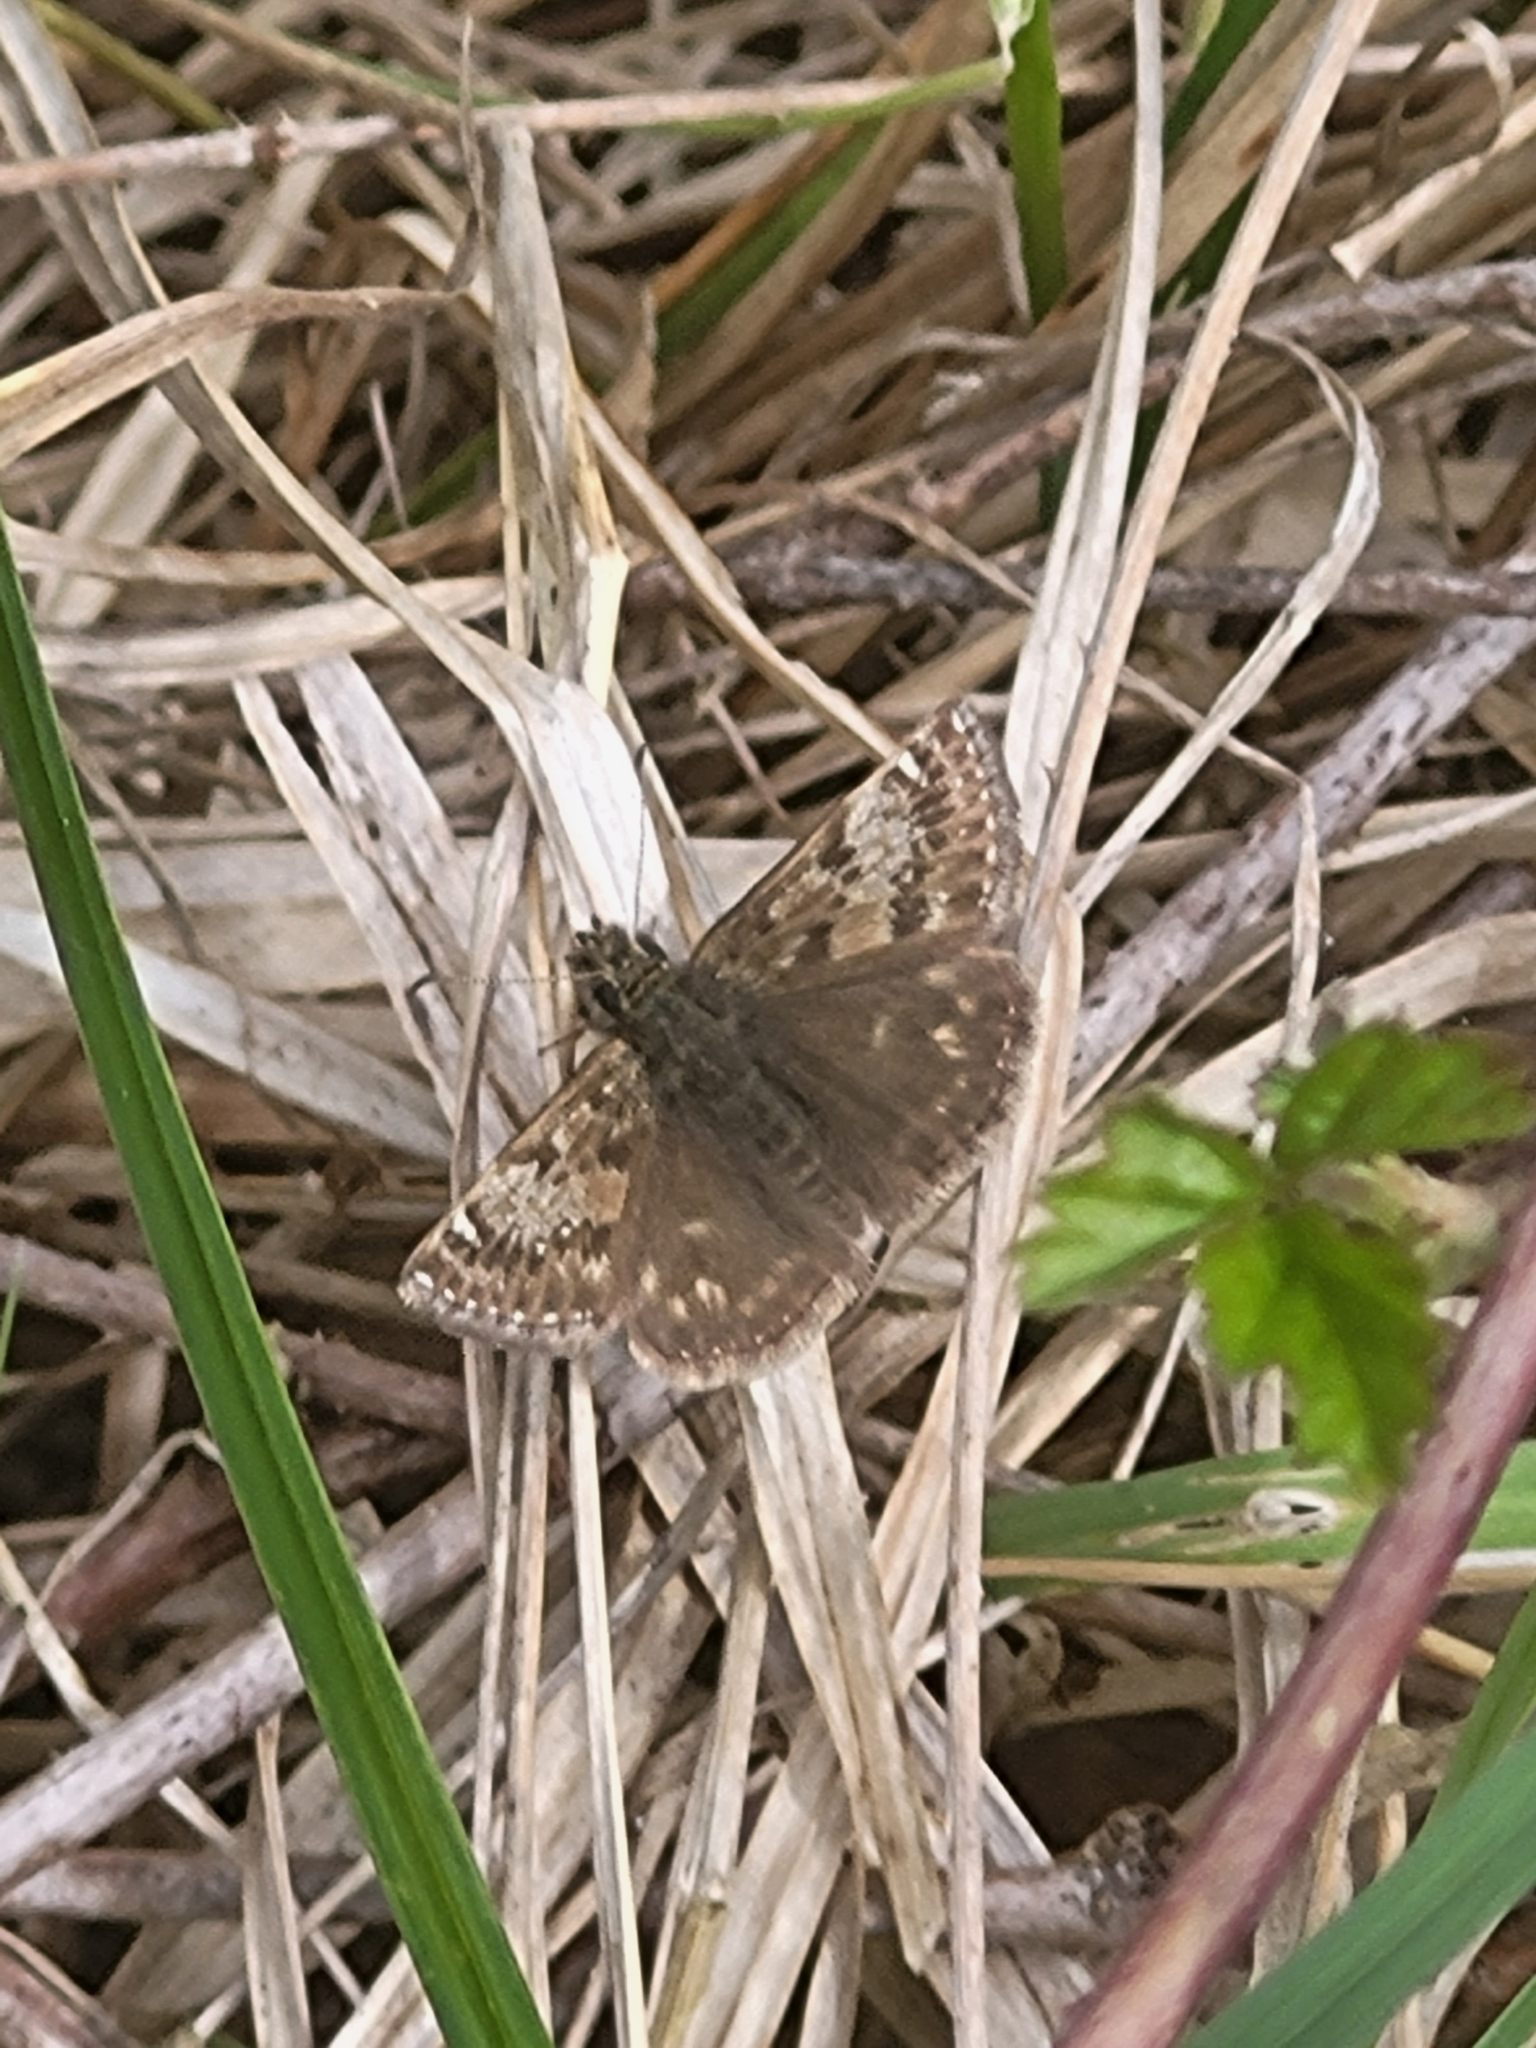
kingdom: Animalia
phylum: Arthropoda
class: Insecta
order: Lepidoptera
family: Hesperiidae
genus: Erynnis
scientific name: Erynnis tages
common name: Dingy skipper
